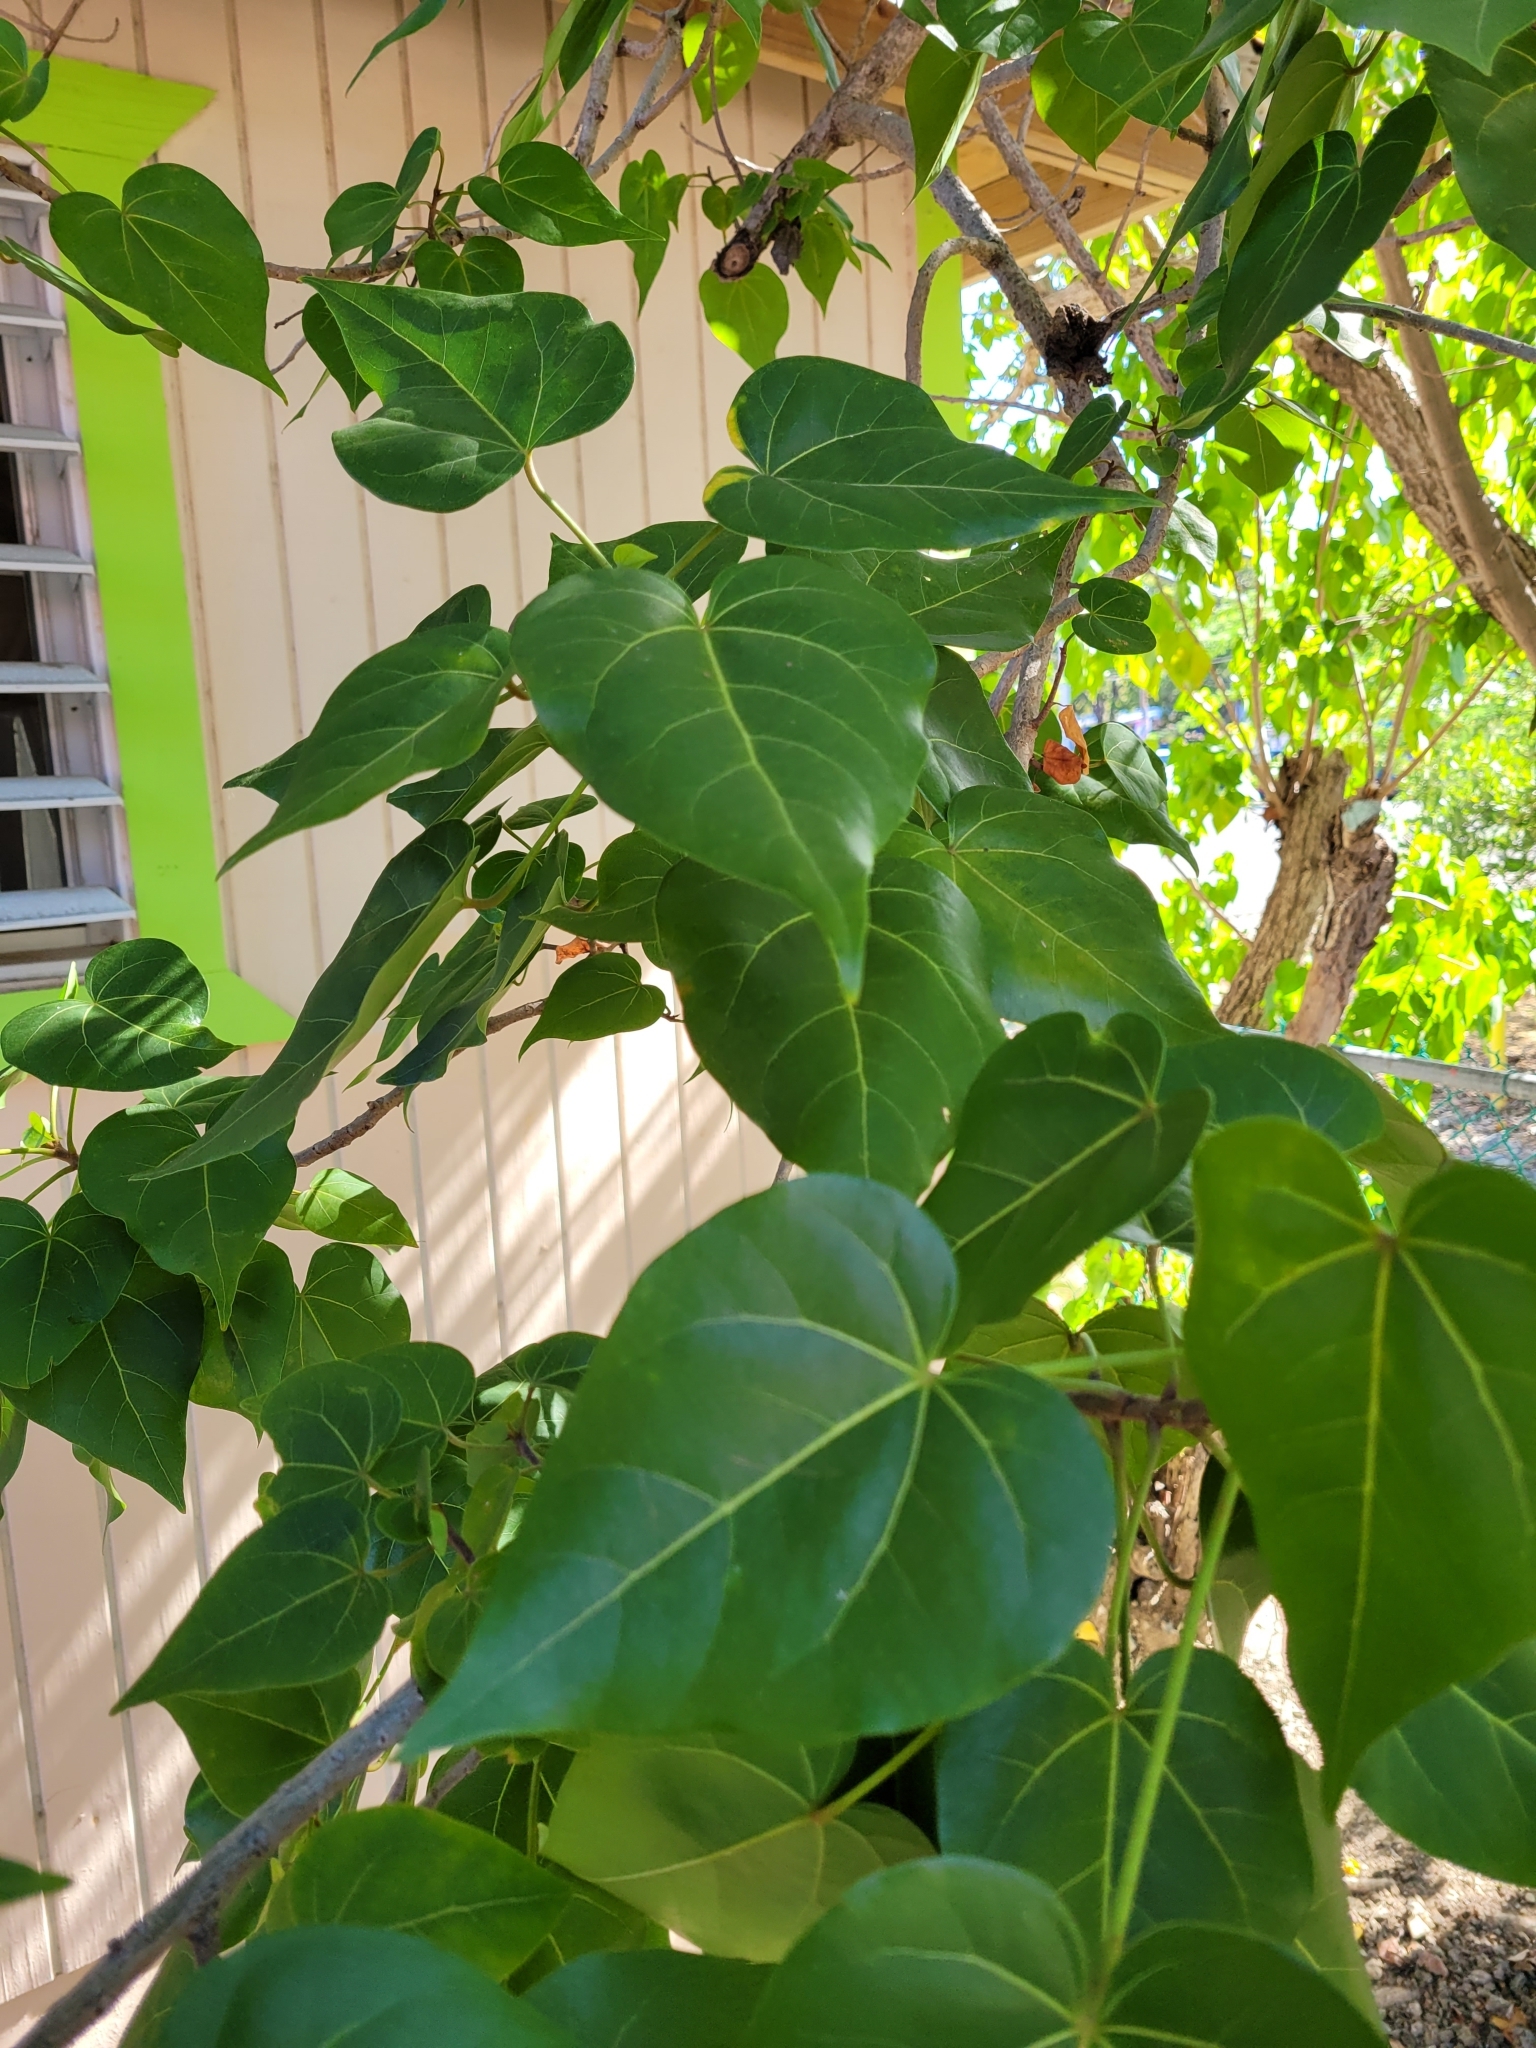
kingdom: Plantae
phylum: Tracheophyta
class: Magnoliopsida
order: Malvales
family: Malvaceae
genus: Thespesia
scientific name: Thespesia populnea
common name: Seaside mahoe
